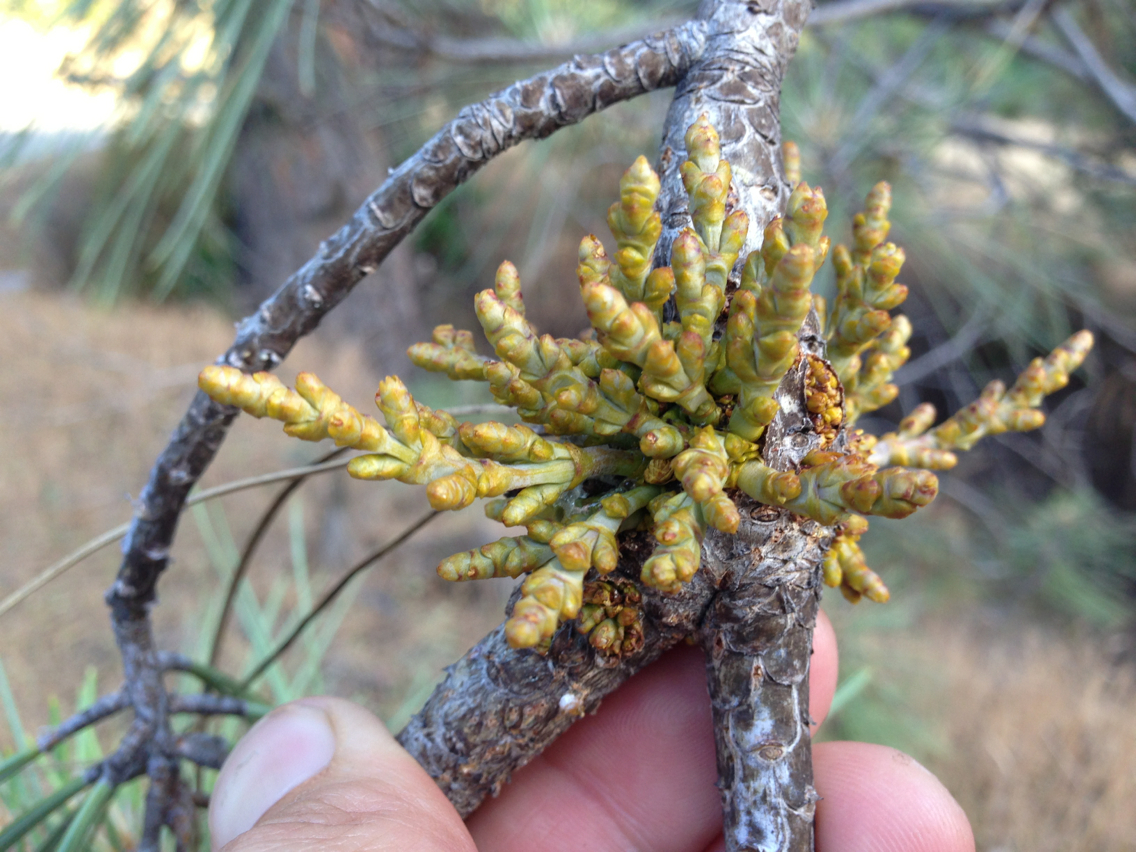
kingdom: Plantae
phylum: Tracheophyta
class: Magnoliopsida
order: Santalales
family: Viscaceae
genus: Arceuthobium
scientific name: Arceuthobium campylopodum
